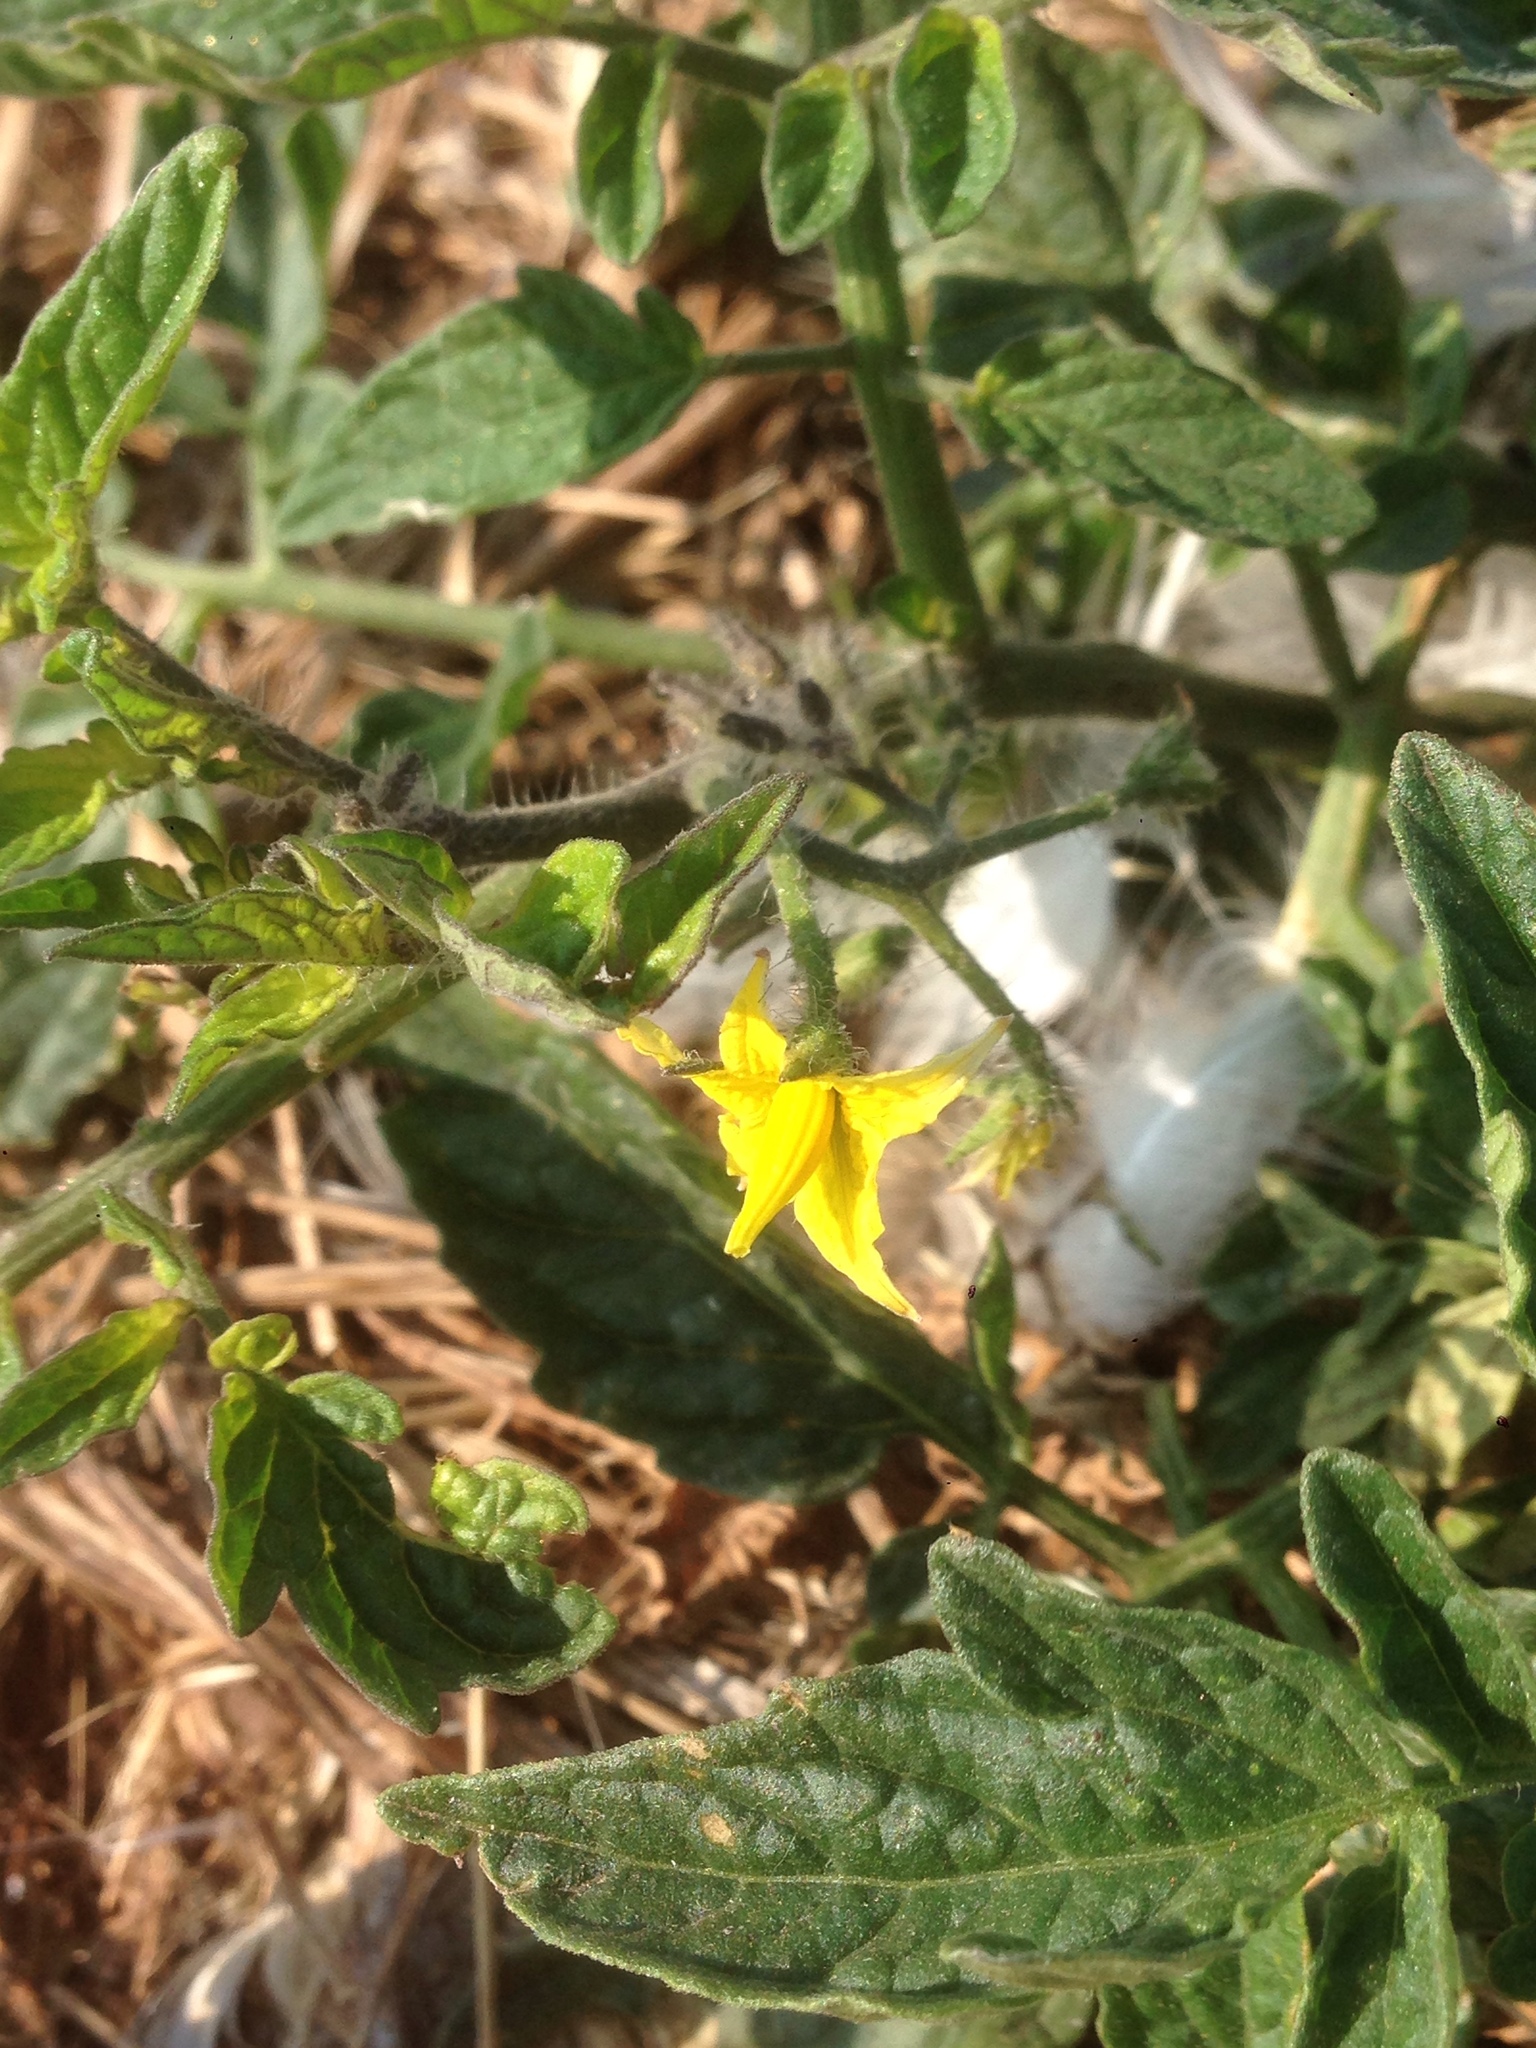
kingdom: Plantae
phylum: Tracheophyta
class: Magnoliopsida
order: Solanales
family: Solanaceae
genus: Solanum
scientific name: Solanum lycopersicum
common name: Garden tomato
